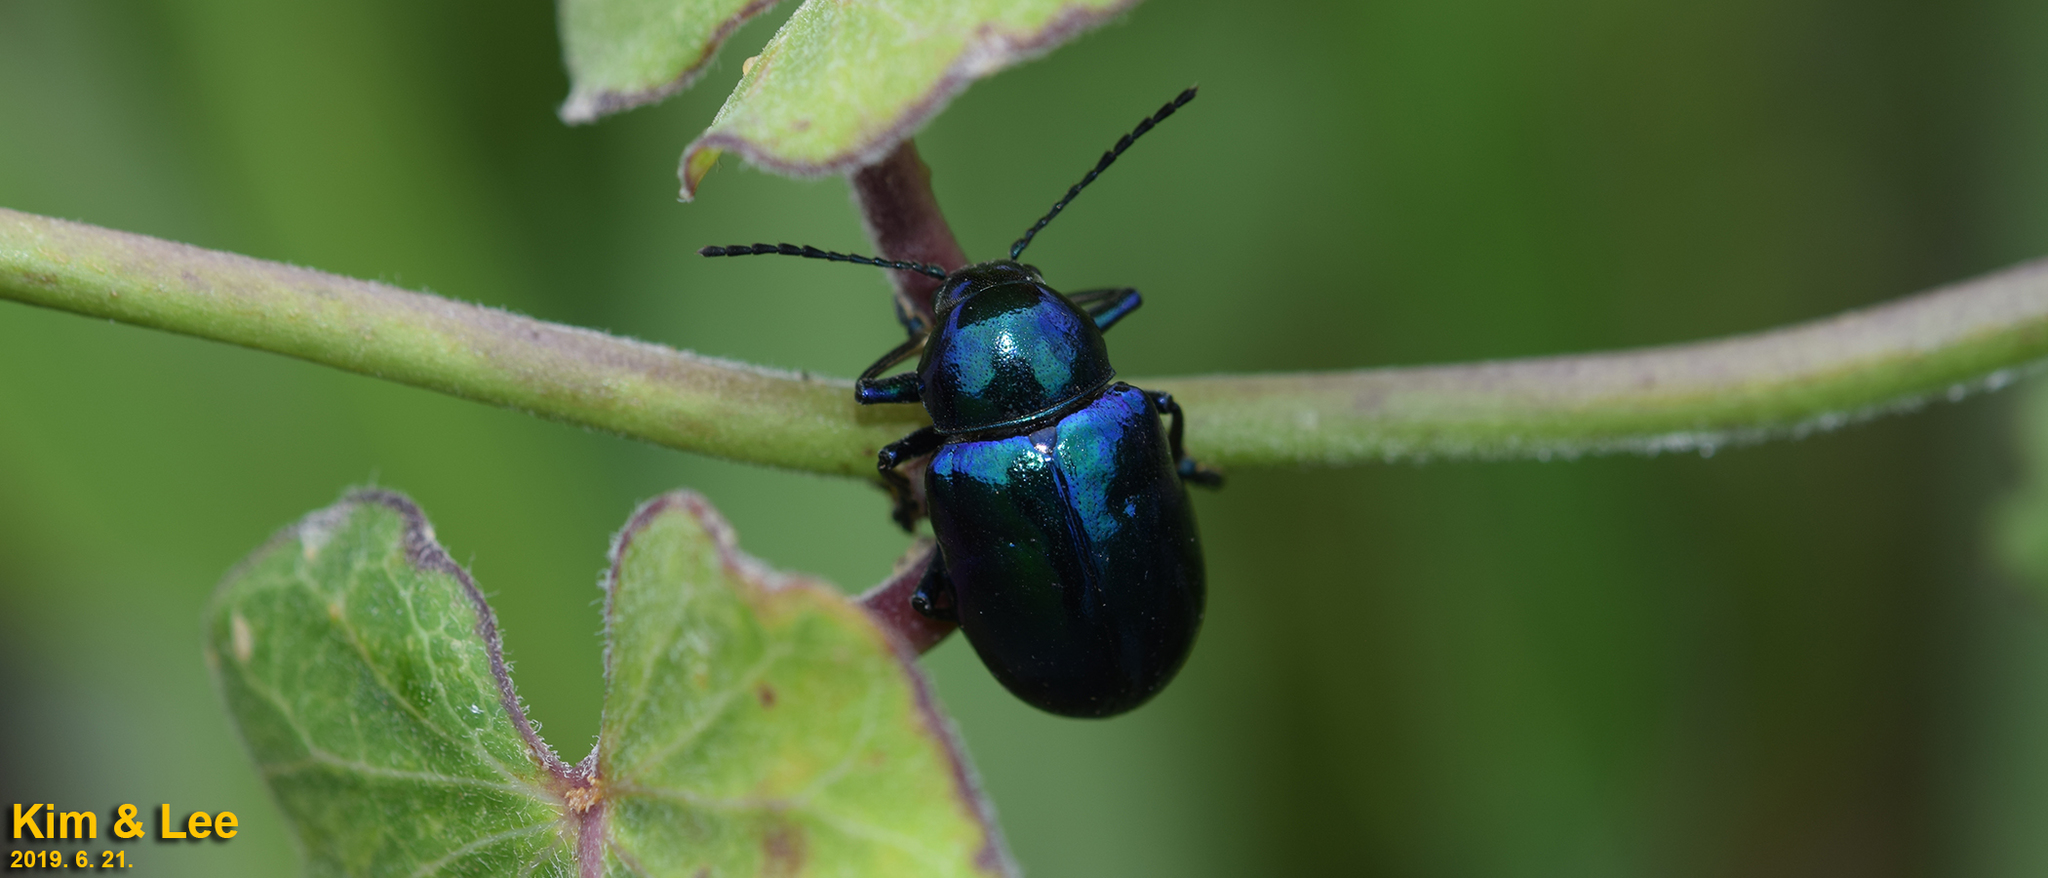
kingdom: Animalia
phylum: Arthropoda
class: Insecta
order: Coleoptera
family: Chrysomelidae
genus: Chrysochus
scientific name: Chrysochus chinensis
